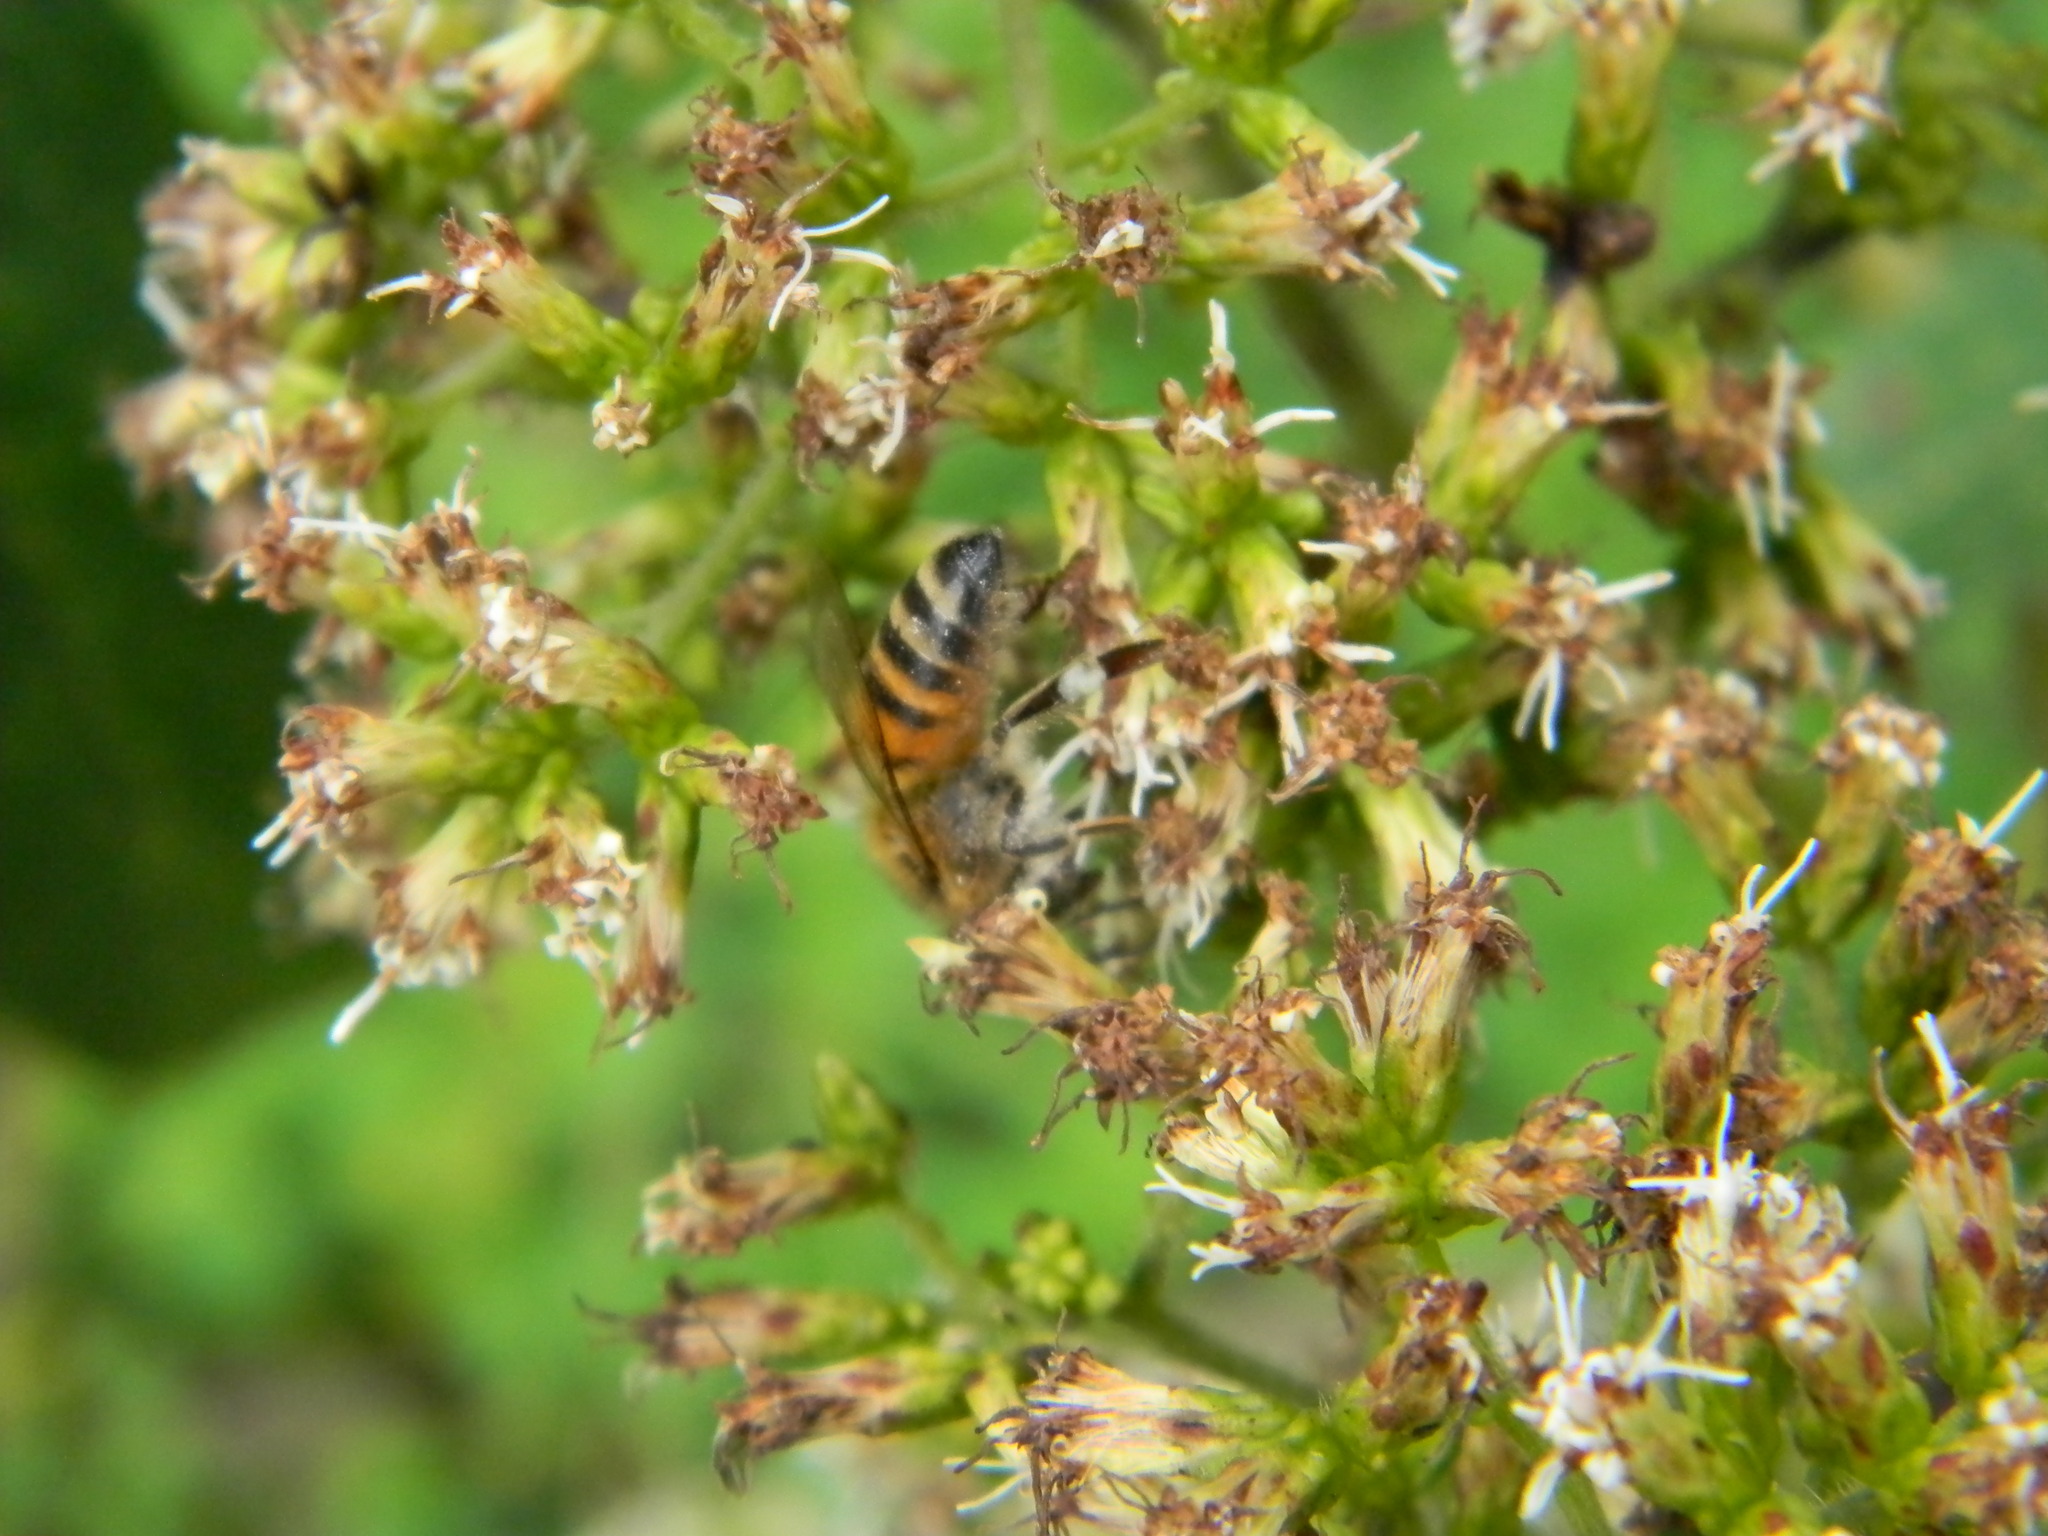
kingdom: Animalia
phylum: Arthropoda
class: Insecta
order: Hymenoptera
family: Apidae
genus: Apis
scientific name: Apis mellifera
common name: Honey bee
